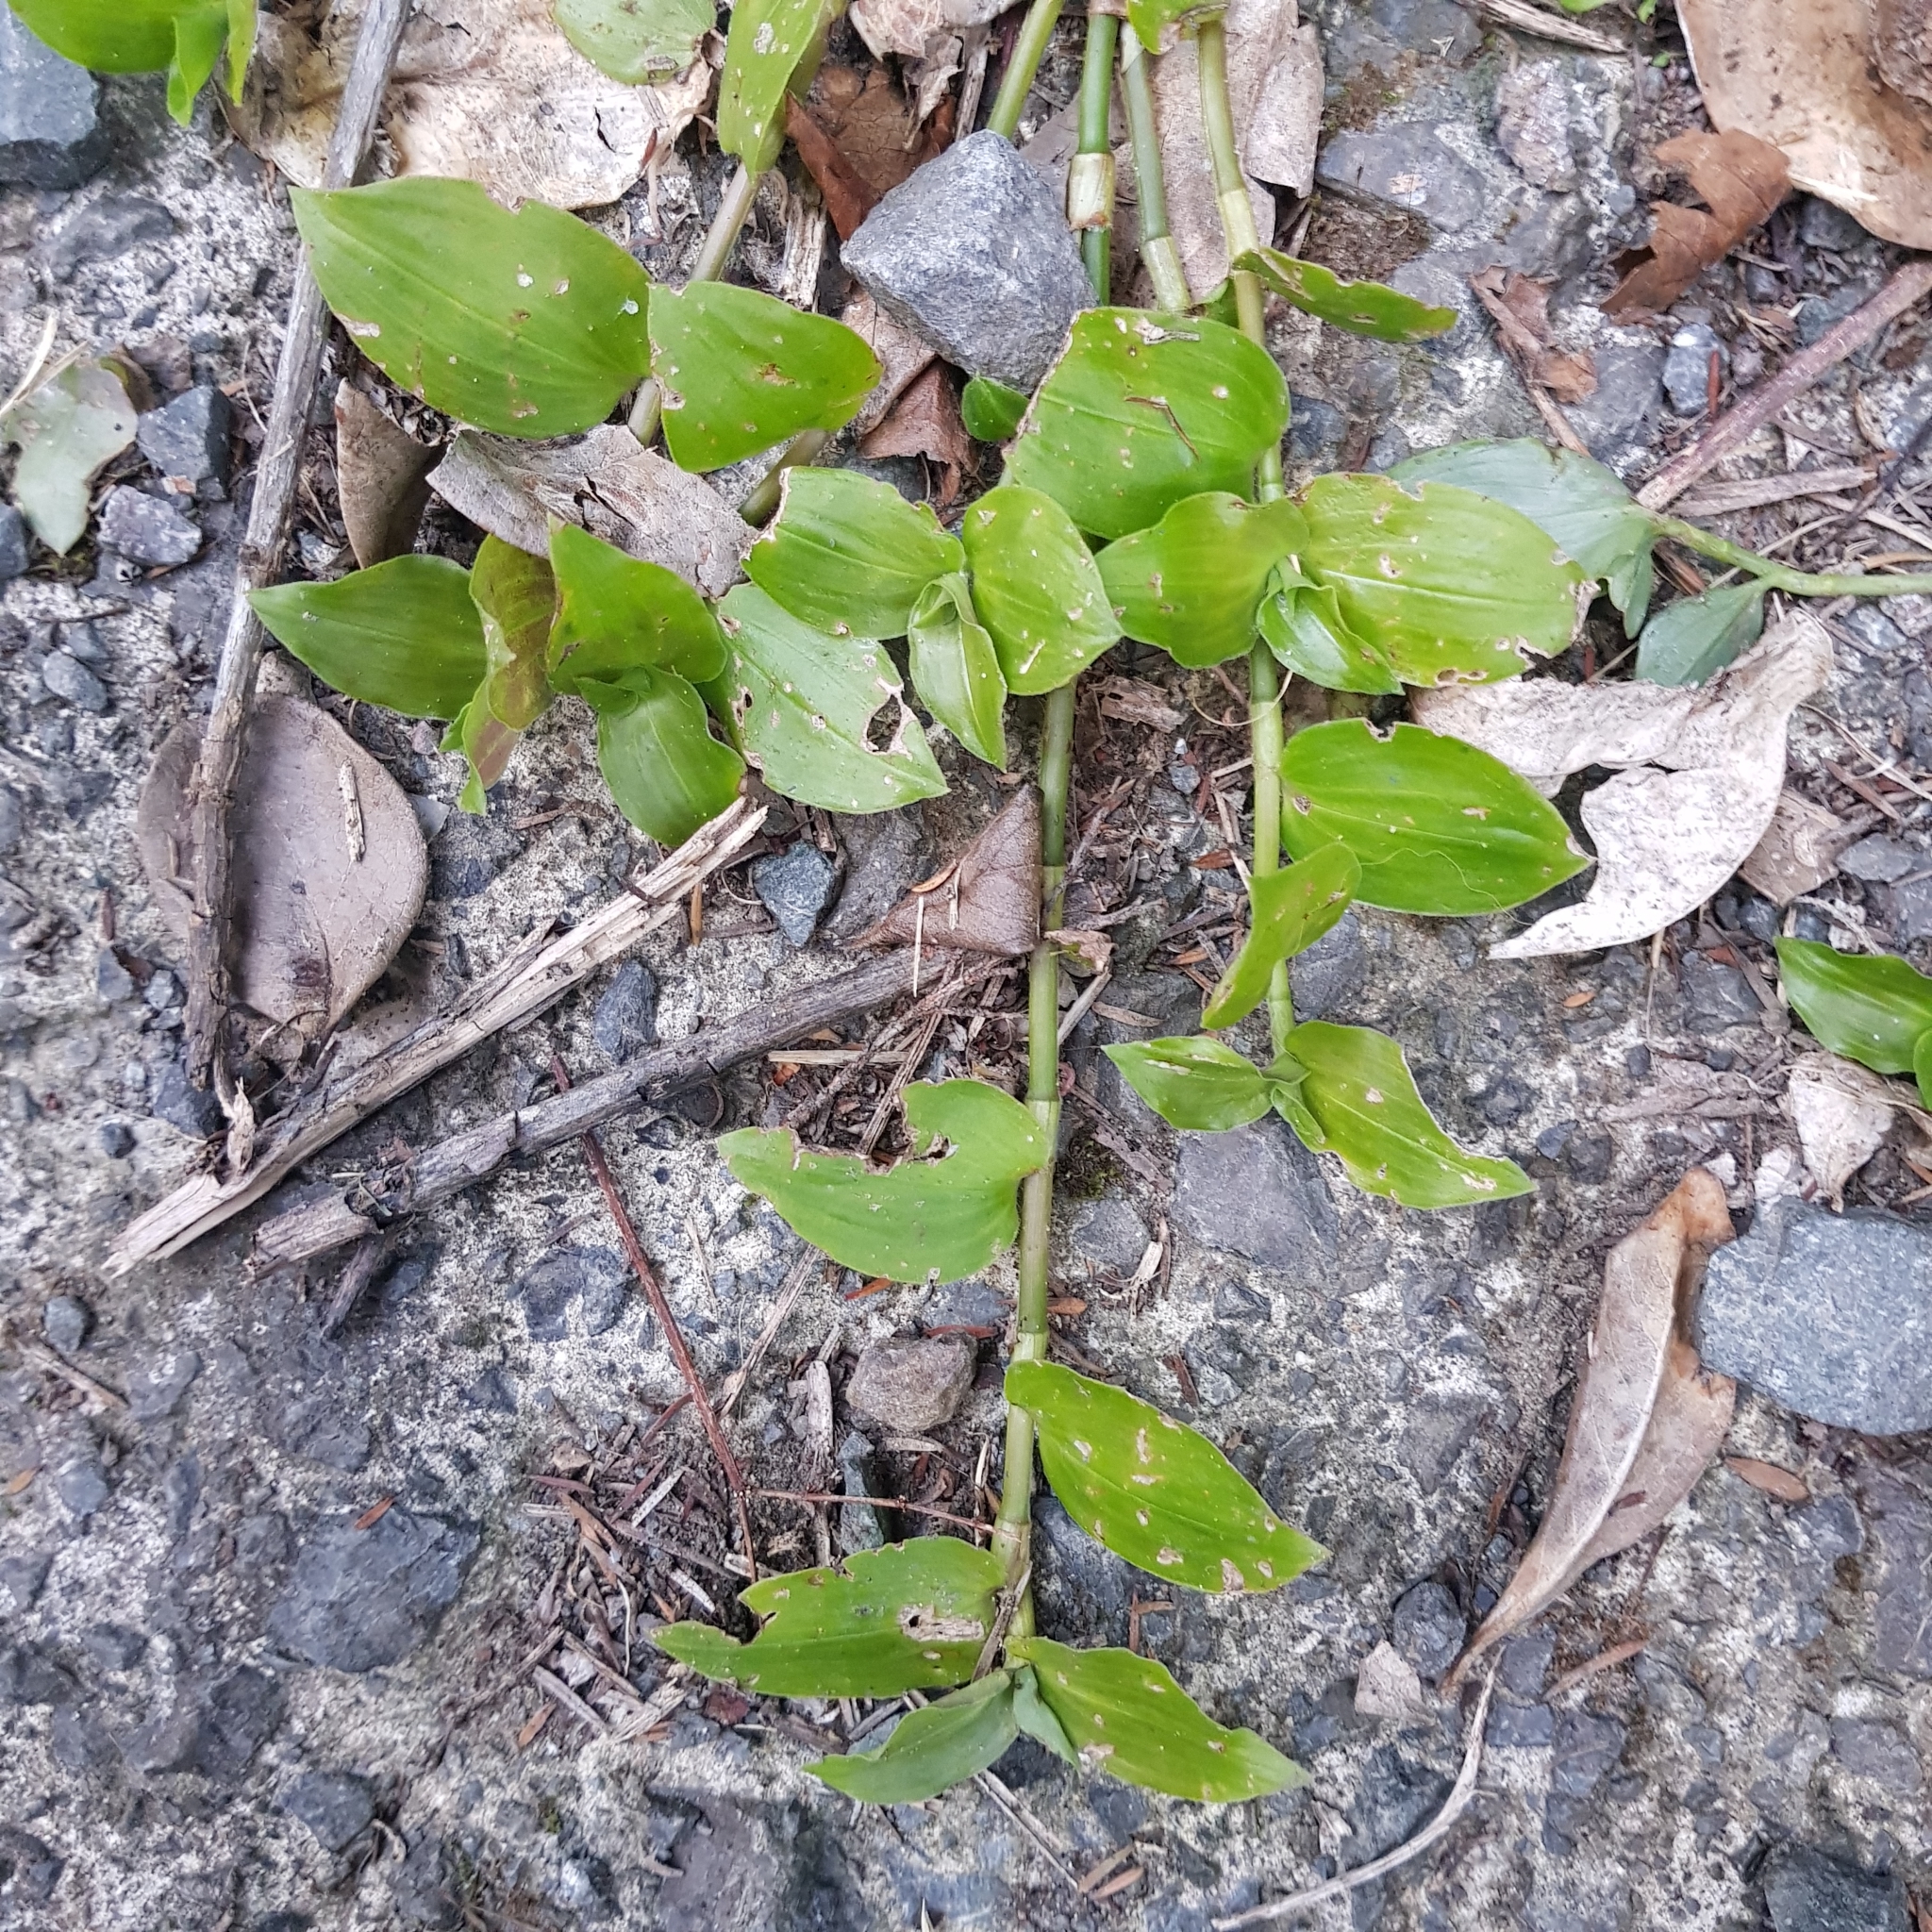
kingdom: Plantae
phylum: Tracheophyta
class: Liliopsida
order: Commelinales
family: Commelinaceae
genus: Tradescantia
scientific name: Tradescantia fluminensis
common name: Wandering-jew
